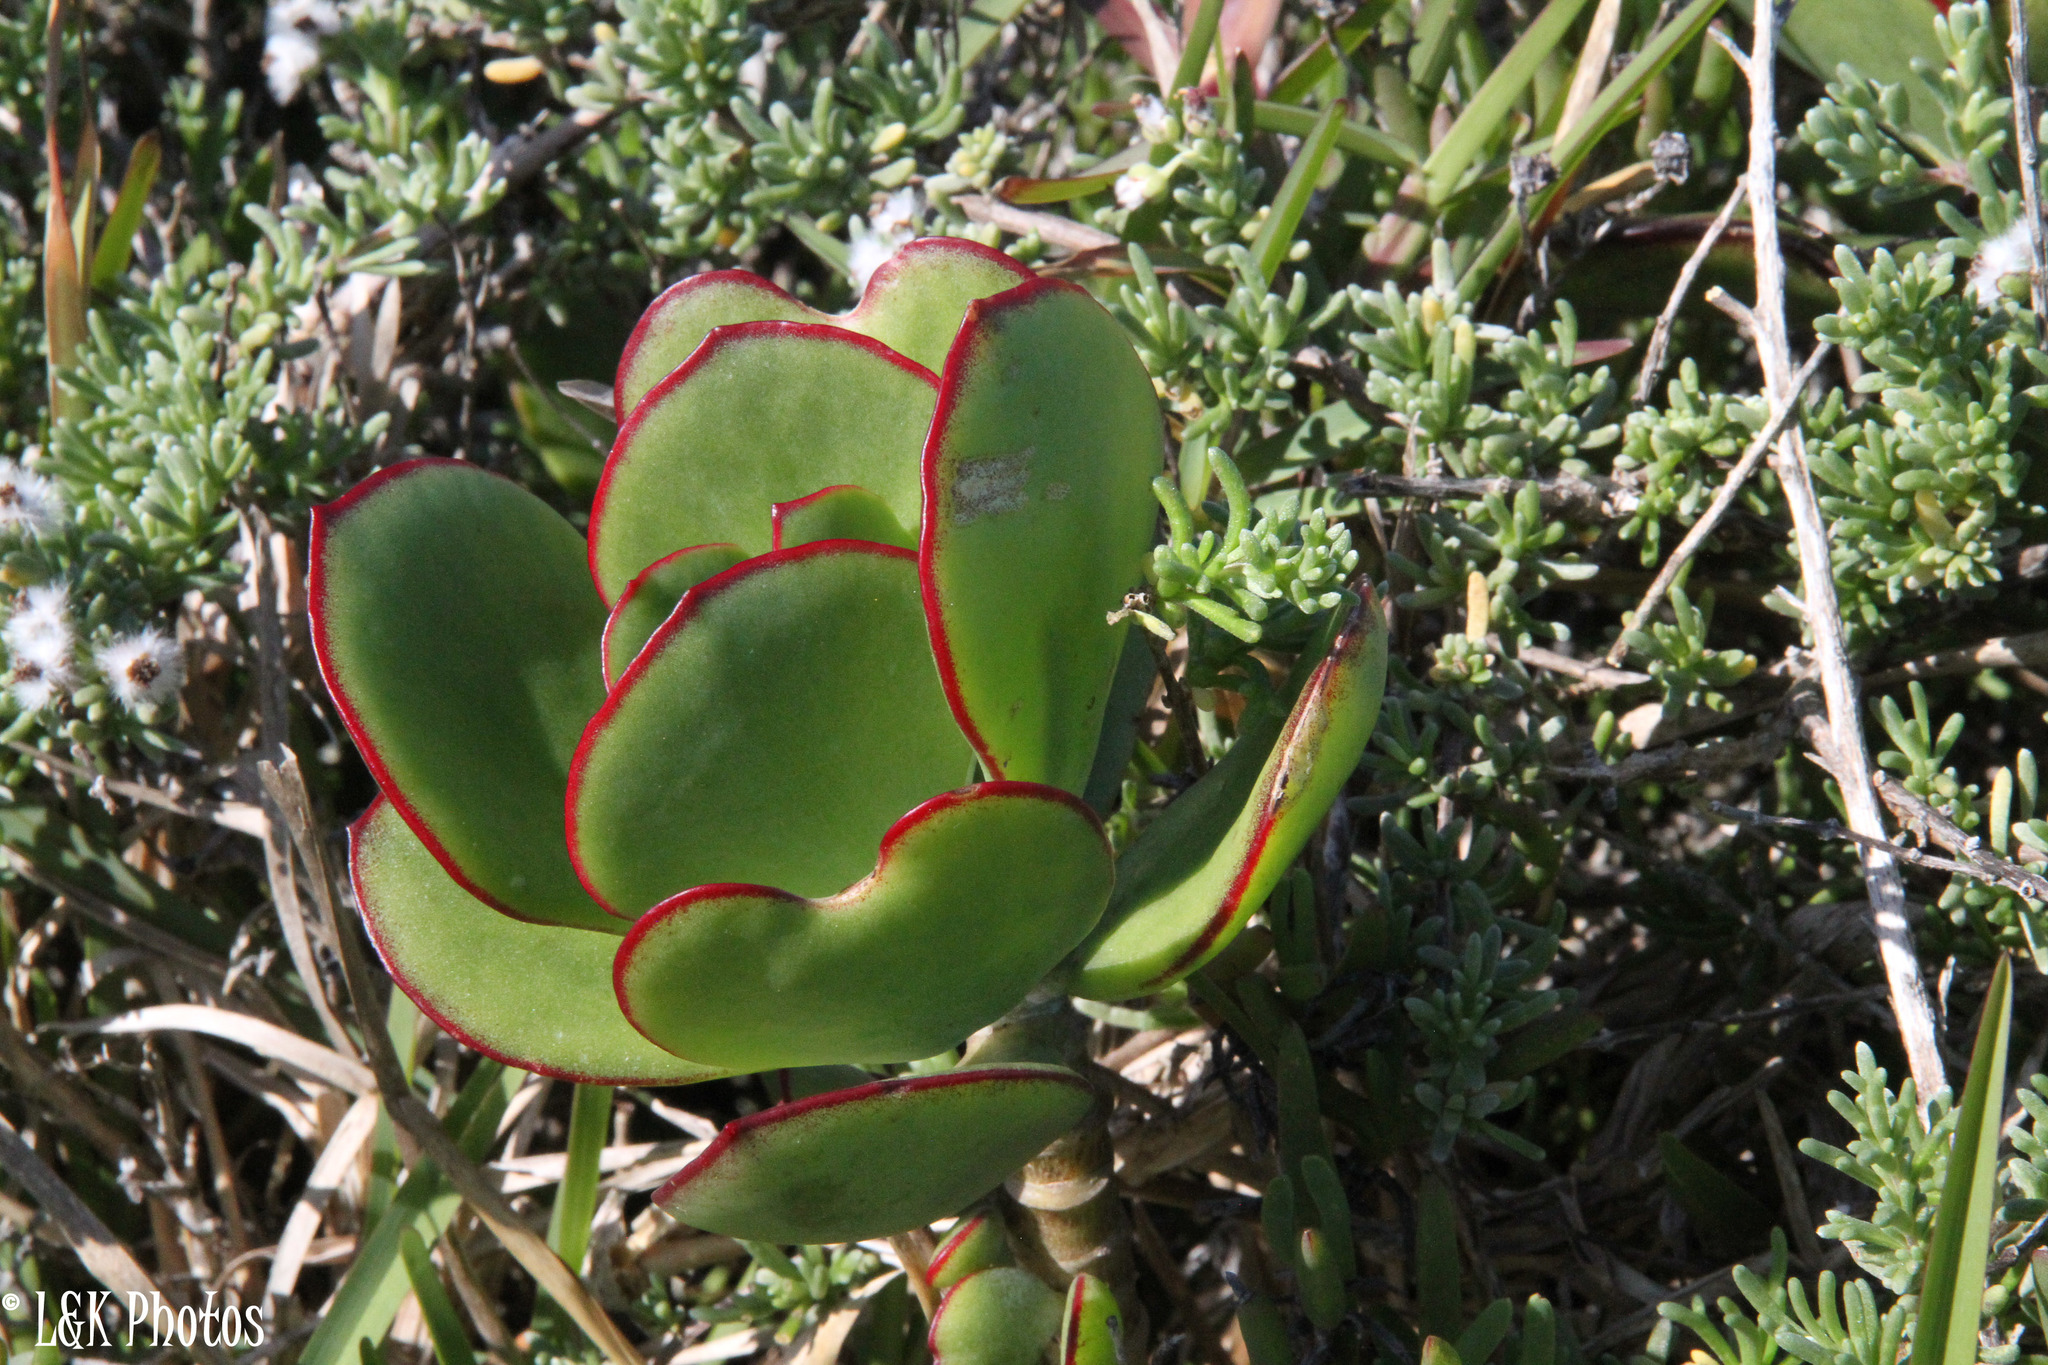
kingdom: Plantae
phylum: Tracheophyta
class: Magnoliopsida
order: Saxifragales
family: Crassulaceae
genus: Cotyledon
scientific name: Cotyledon orbiculata
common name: Pig's ear
